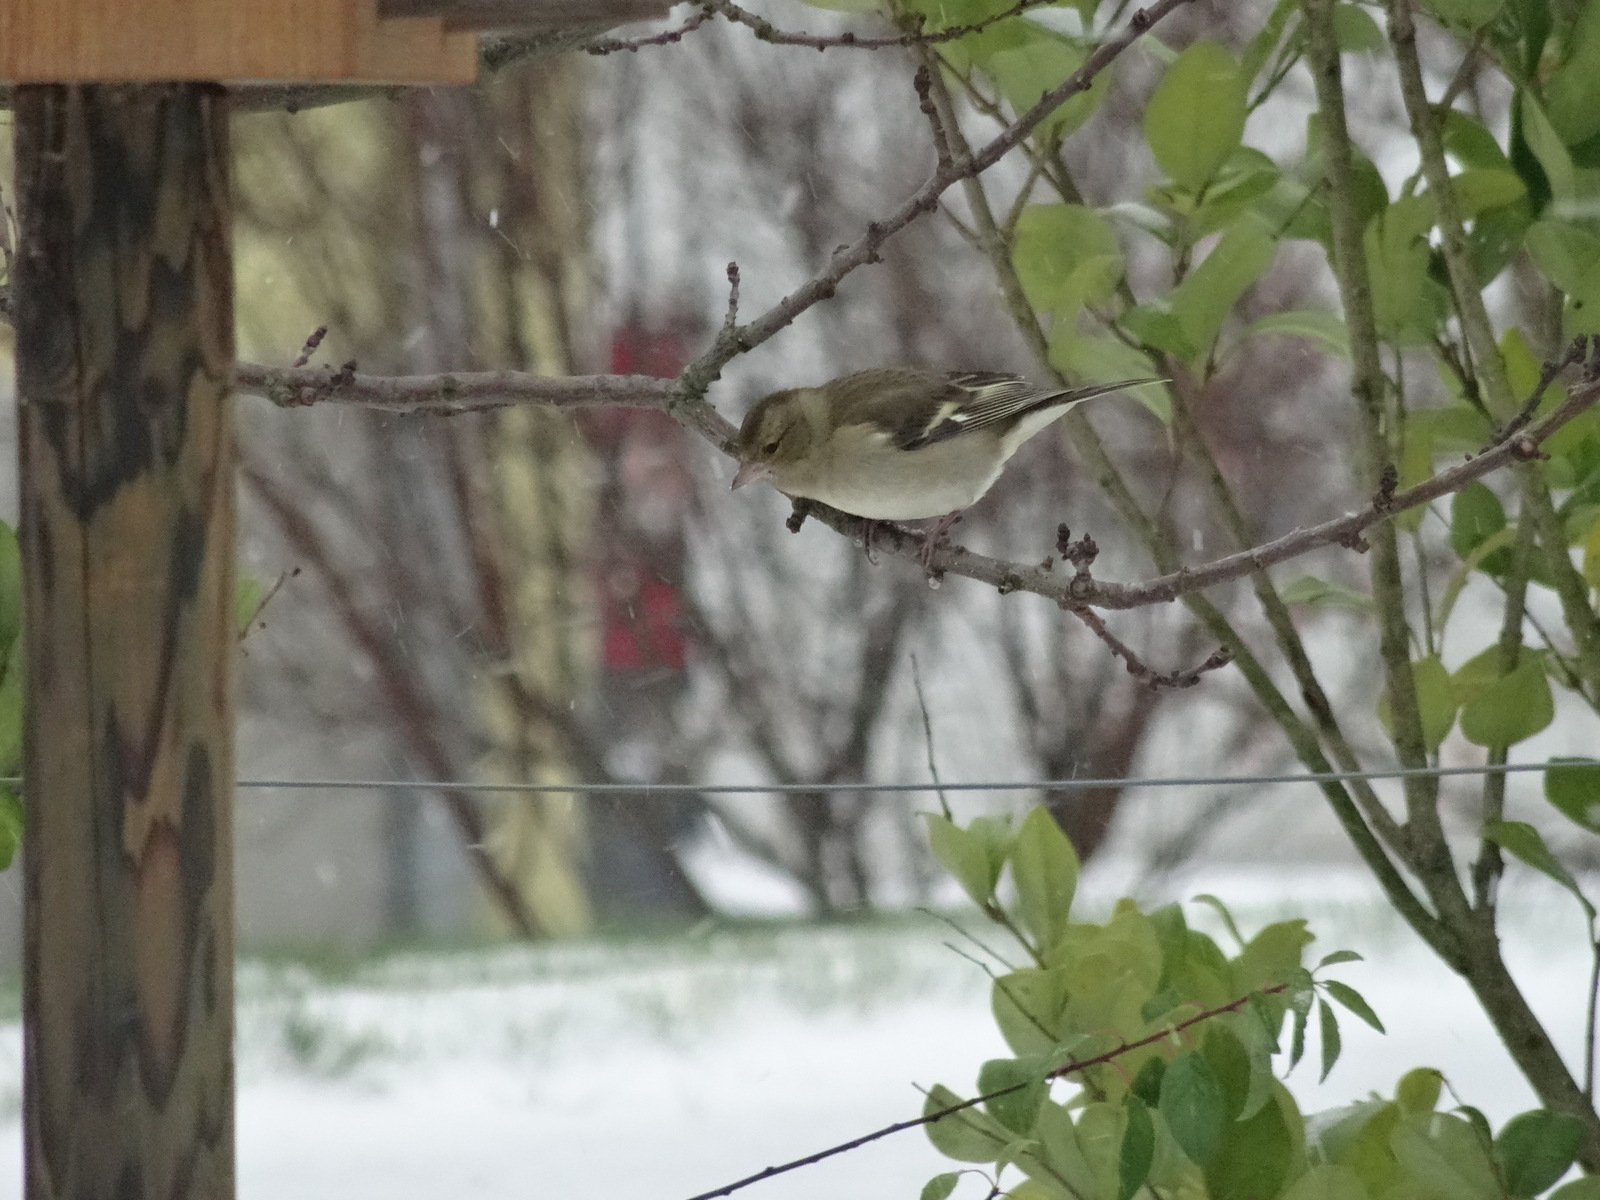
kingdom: Animalia
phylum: Chordata
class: Aves
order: Passeriformes
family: Fringillidae
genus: Fringilla
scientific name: Fringilla coelebs
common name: Common chaffinch
